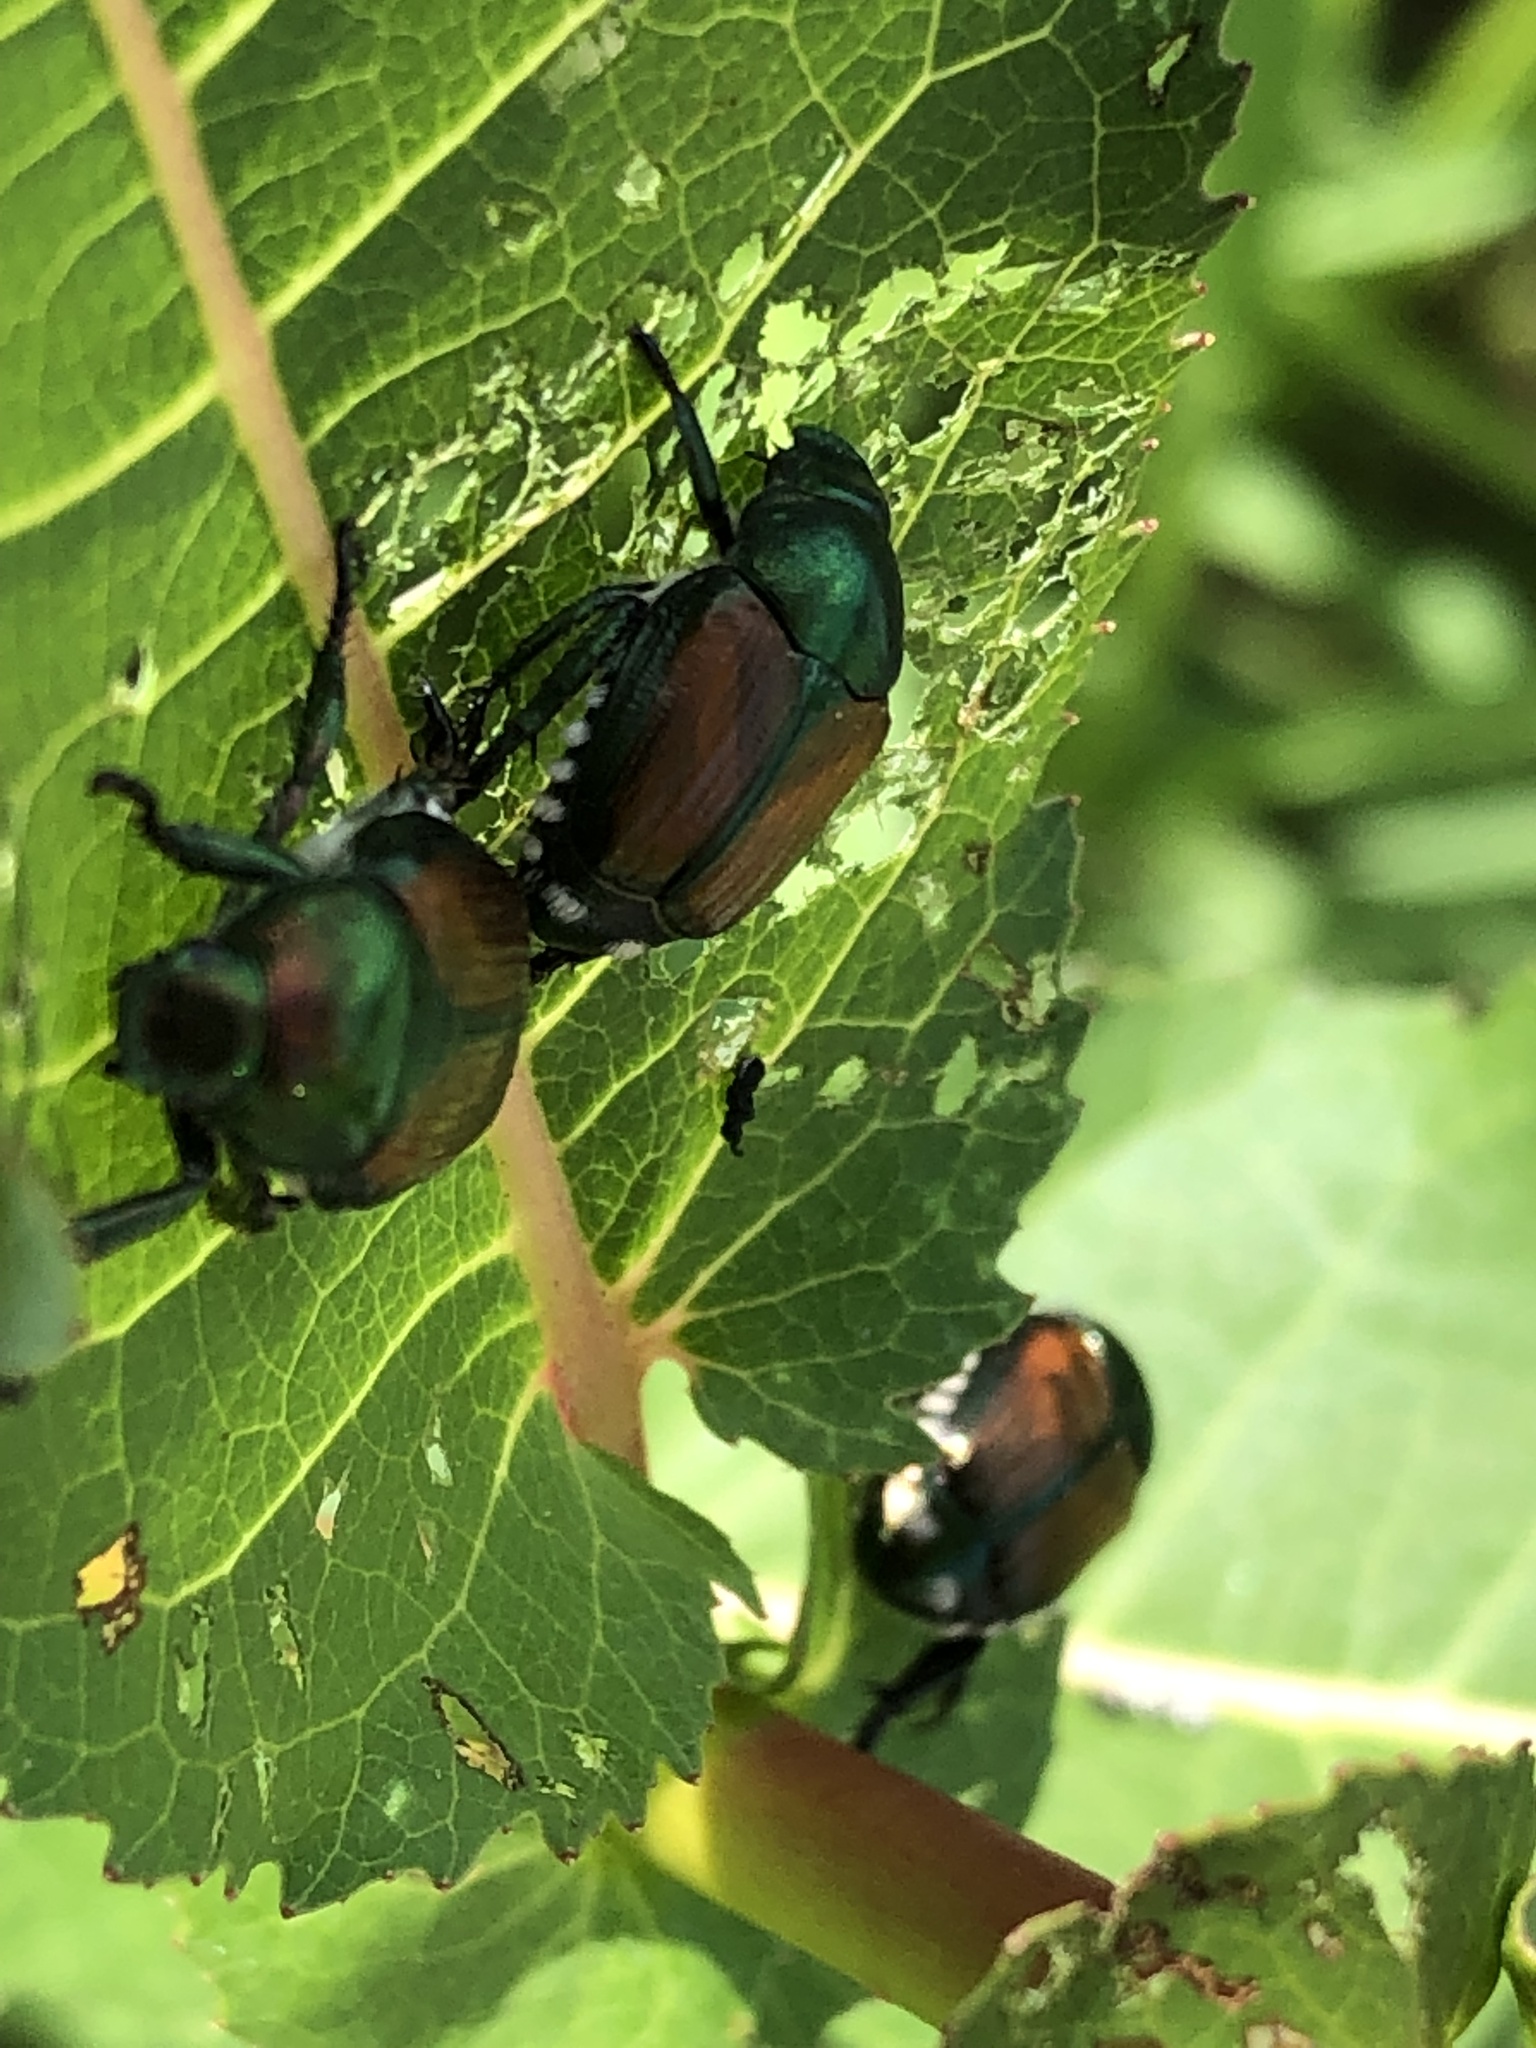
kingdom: Animalia
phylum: Arthropoda
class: Insecta
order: Coleoptera
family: Scarabaeidae
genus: Popillia
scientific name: Popillia japonica
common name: Japanese beetle
